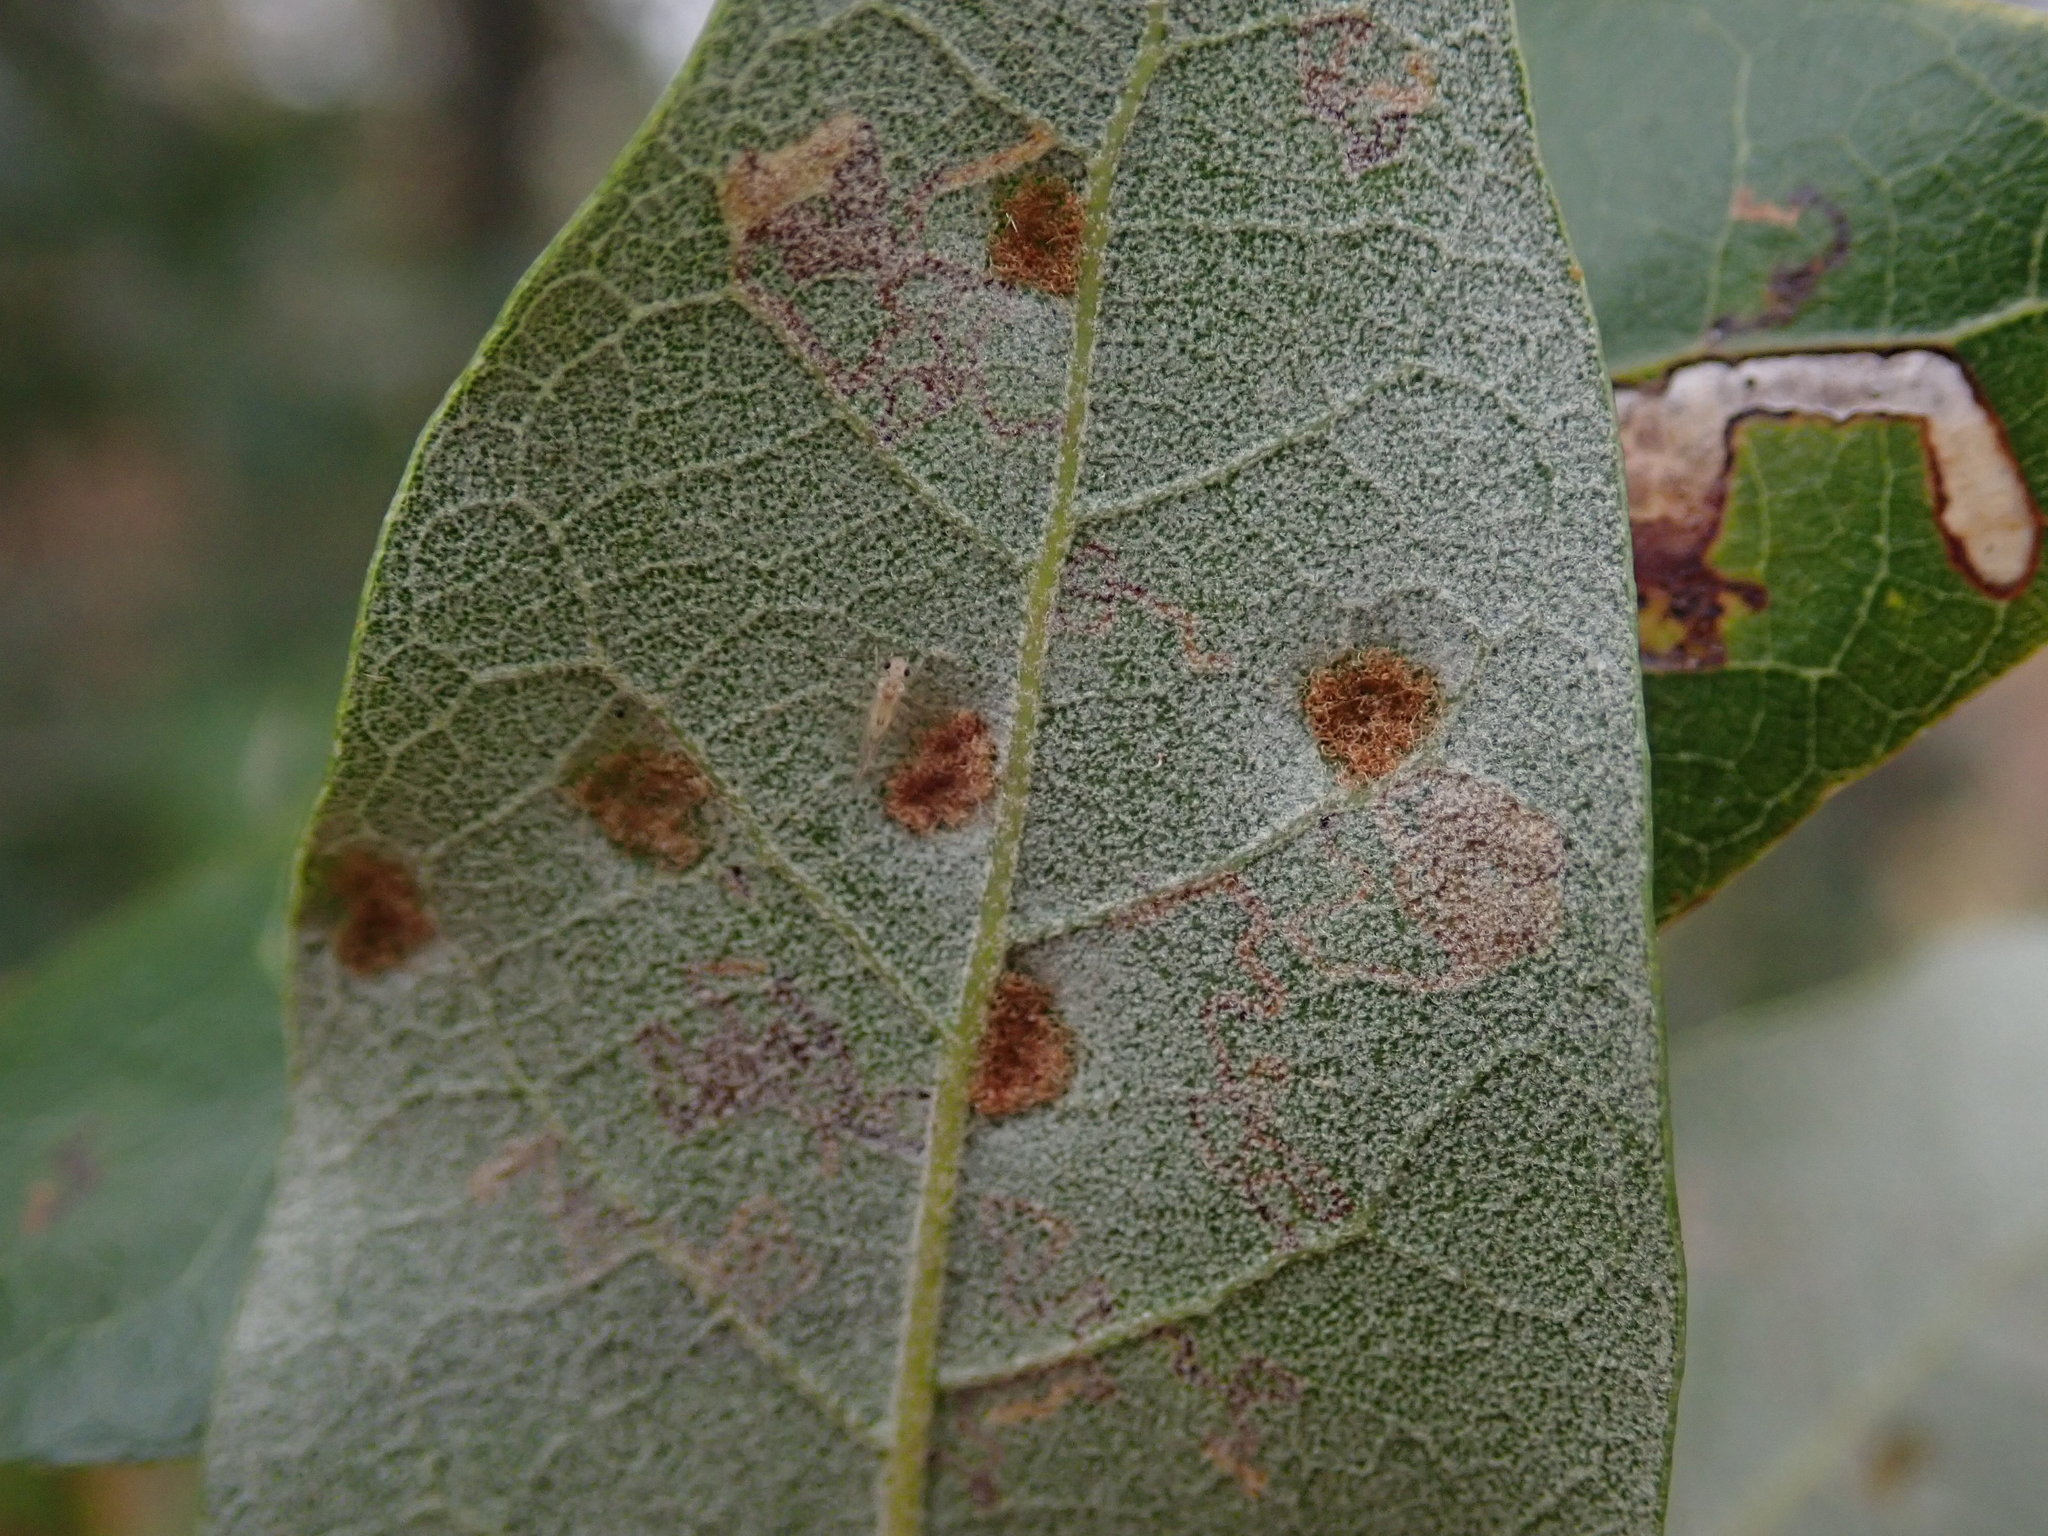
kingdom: Animalia
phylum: Arthropoda
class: Arachnida
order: Trombidiformes
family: Eriophyidae
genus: Aceria
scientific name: Aceria ilicis
